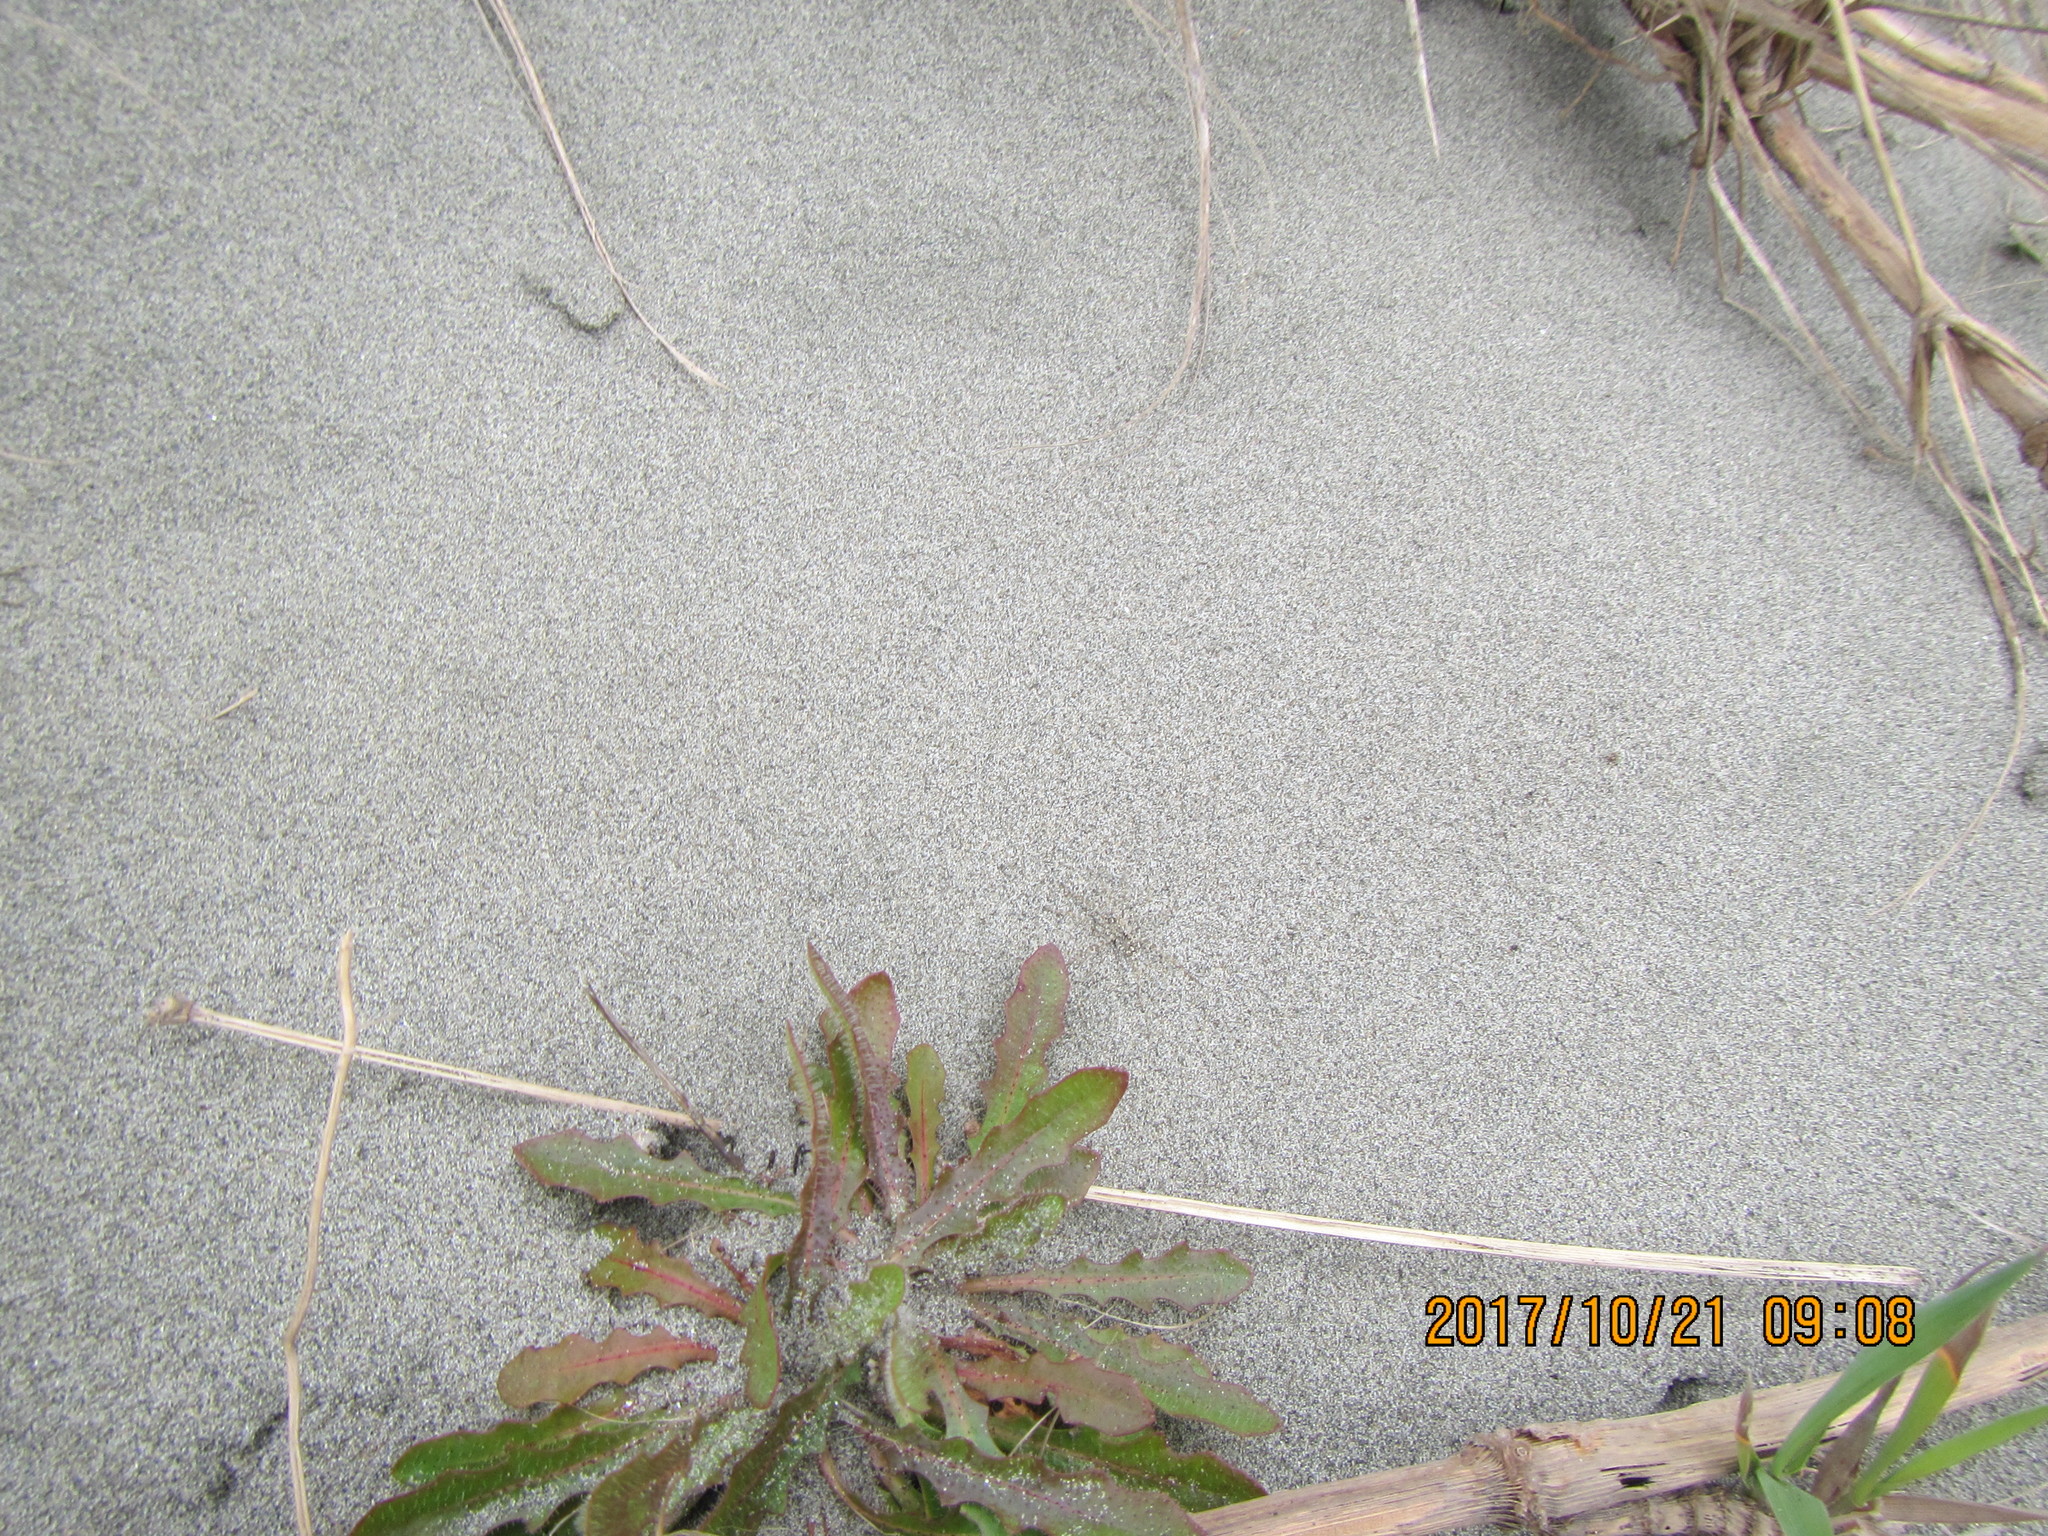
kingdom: Animalia
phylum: Arthropoda
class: Arachnida
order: Araneae
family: Lycosidae
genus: Anoteropsis
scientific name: Anoteropsis litoralis
